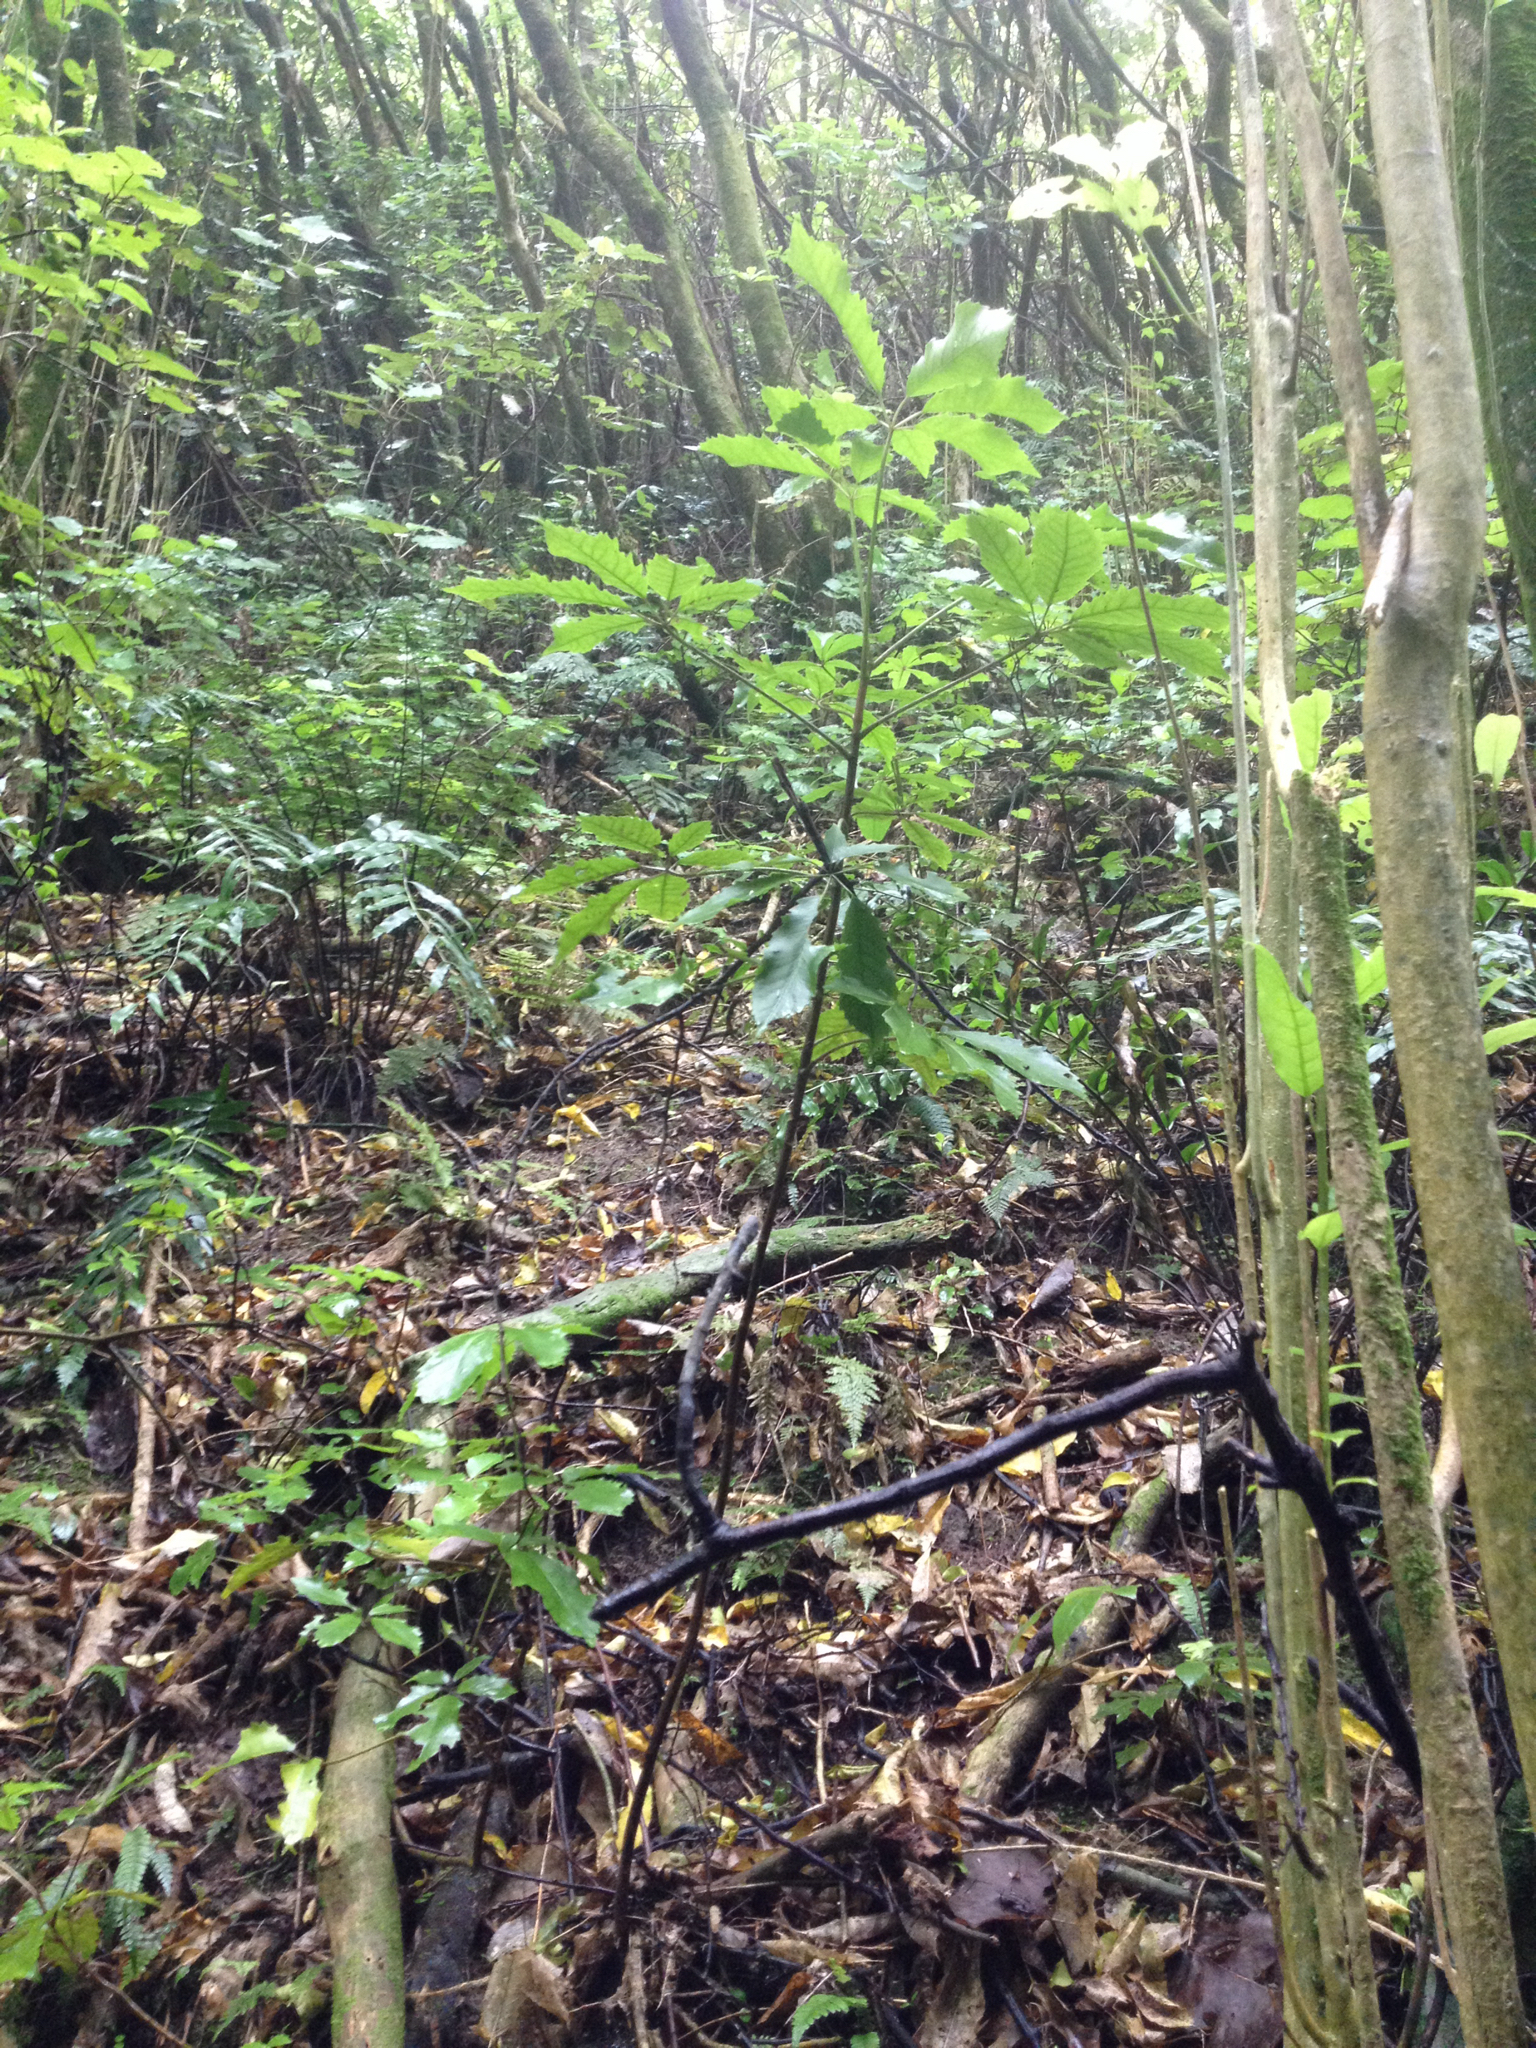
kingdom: Plantae
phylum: Tracheophyta
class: Magnoliopsida
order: Apiales
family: Araliaceae
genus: Neopanax
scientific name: Neopanax arboreus
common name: Five-fingers
